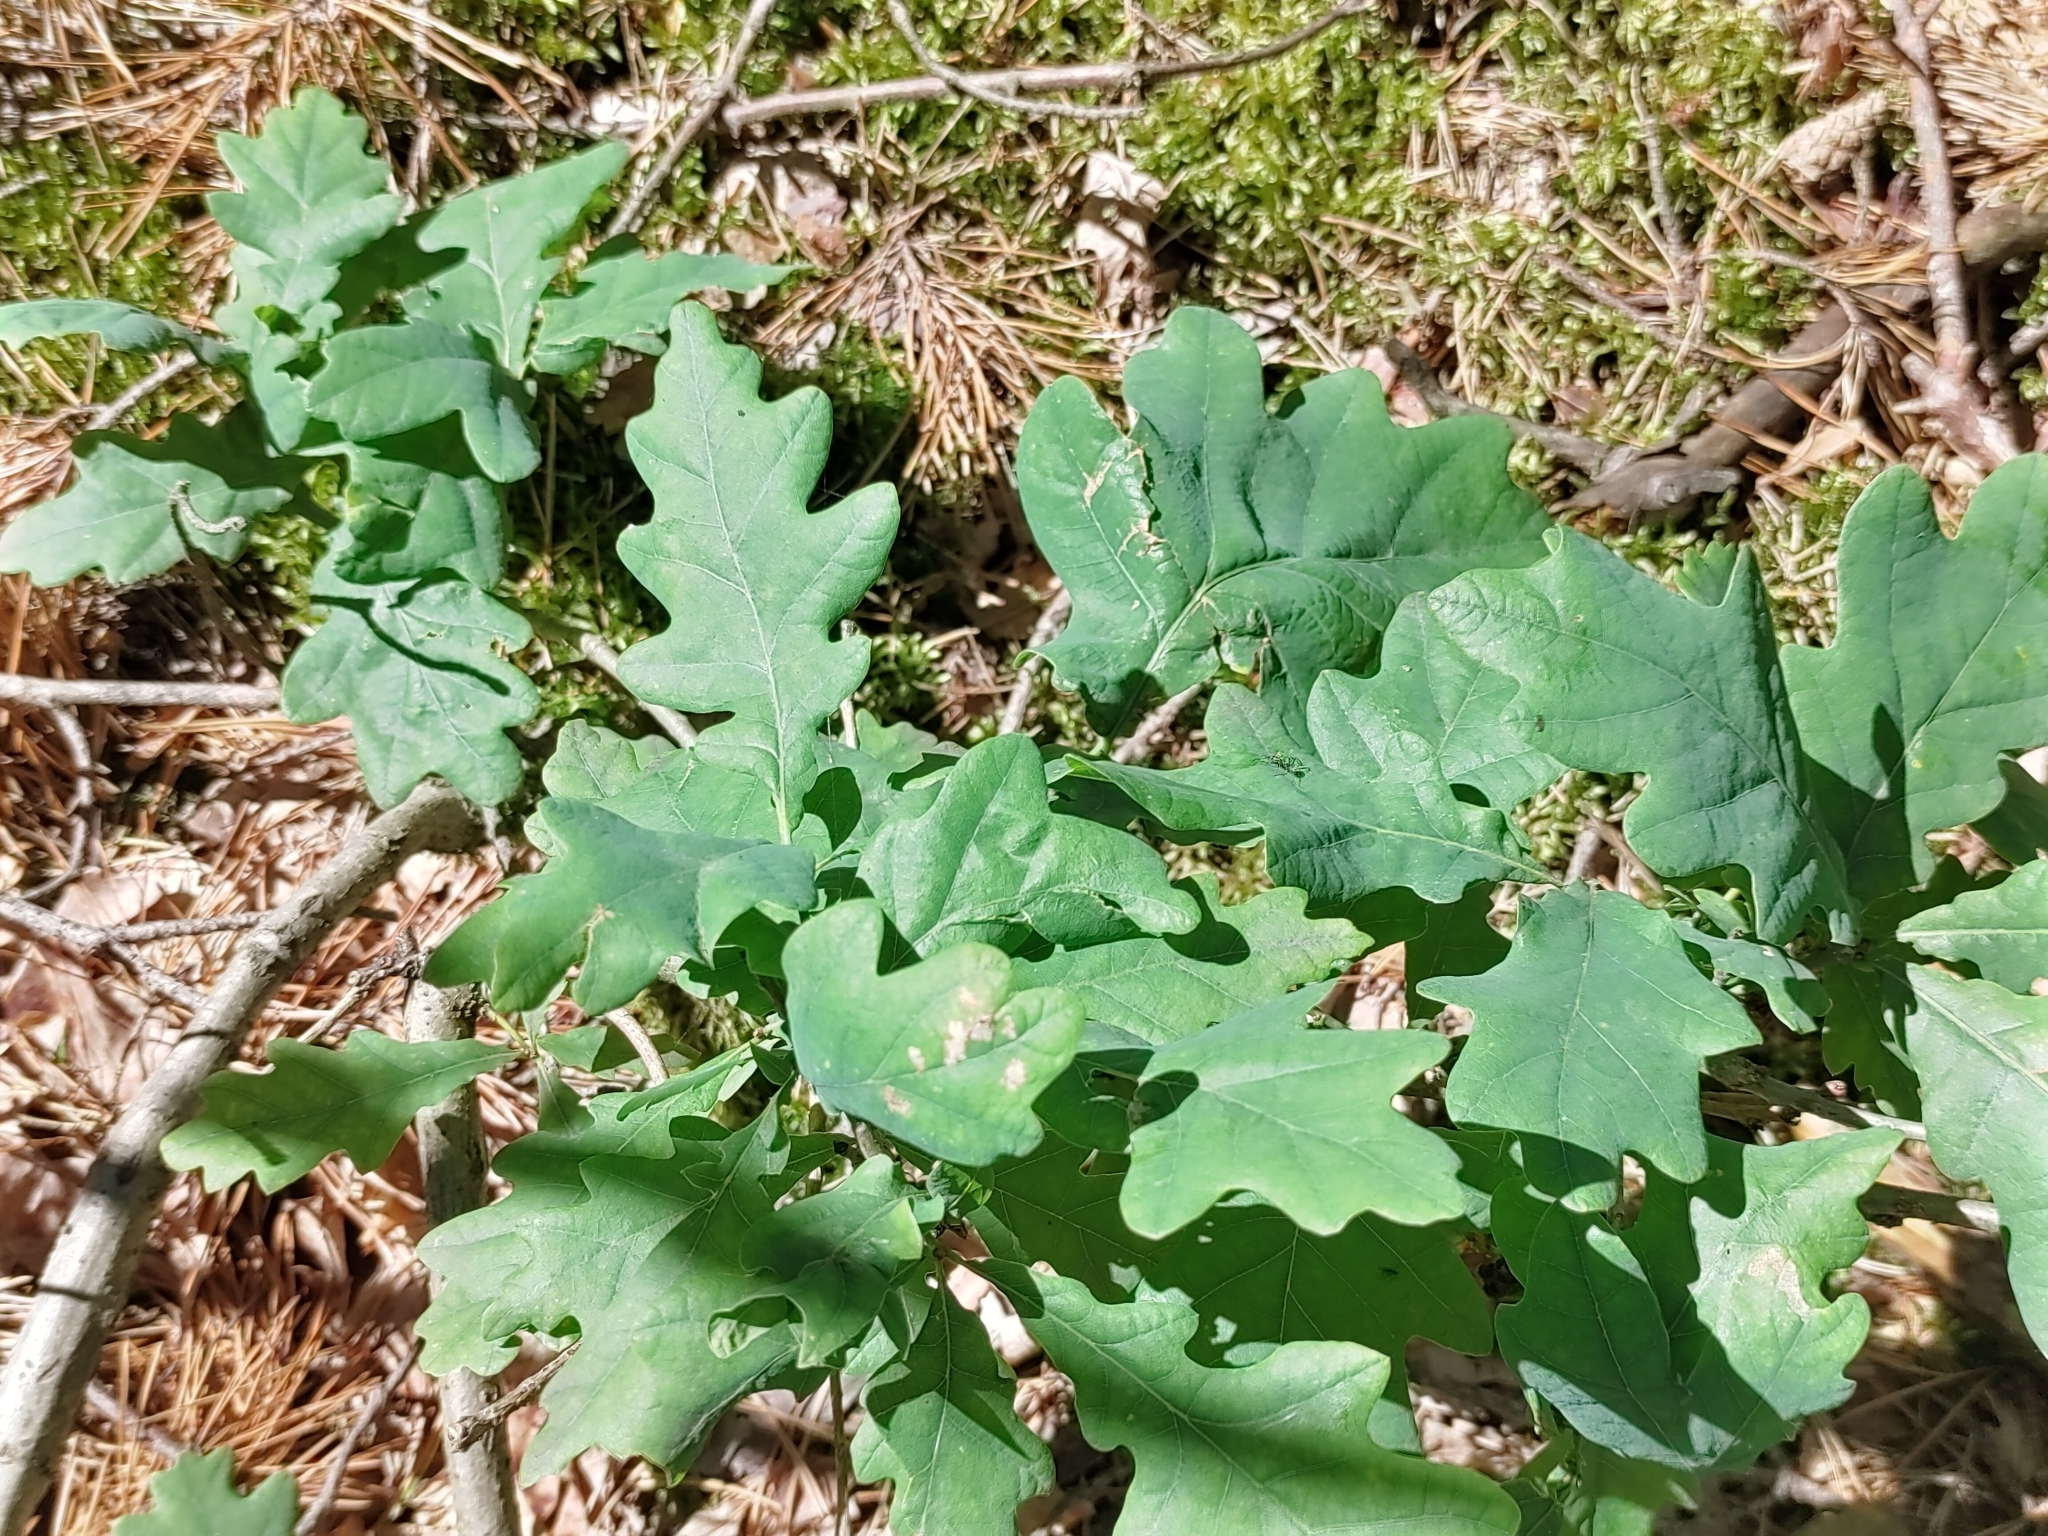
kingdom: Plantae
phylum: Tracheophyta
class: Magnoliopsida
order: Fagales
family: Fagaceae
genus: Quercus
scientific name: Quercus robur
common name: Pedunculate oak
